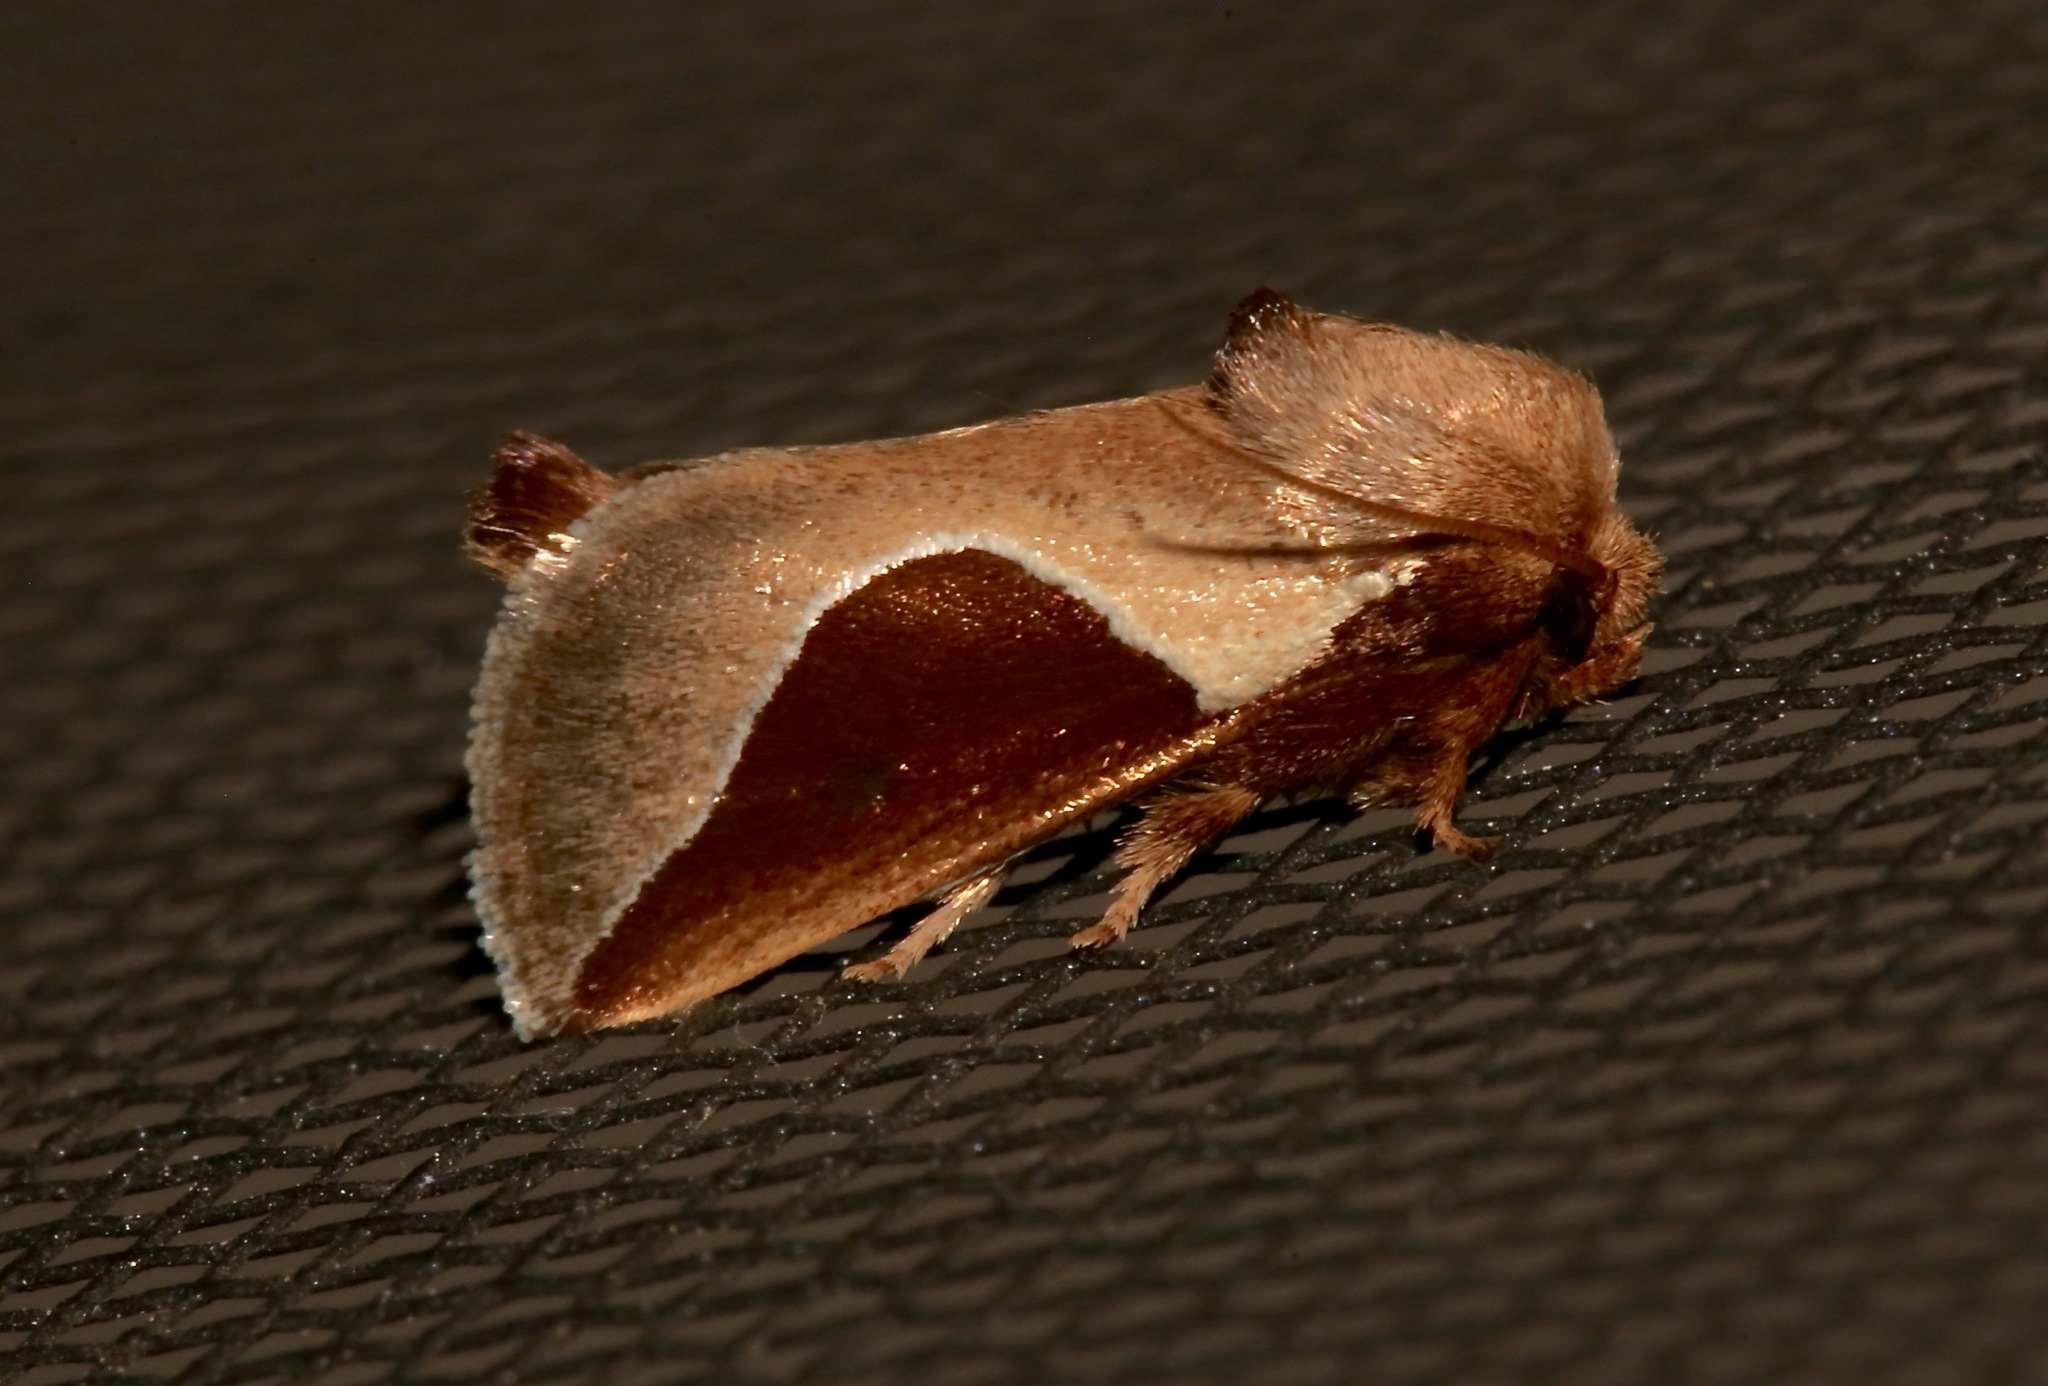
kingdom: Animalia
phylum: Arthropoda
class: Insecta
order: Lepidoptera
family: Limacodidae
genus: Prolimacodes
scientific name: Prolimacodes badia
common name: Skiff moth
